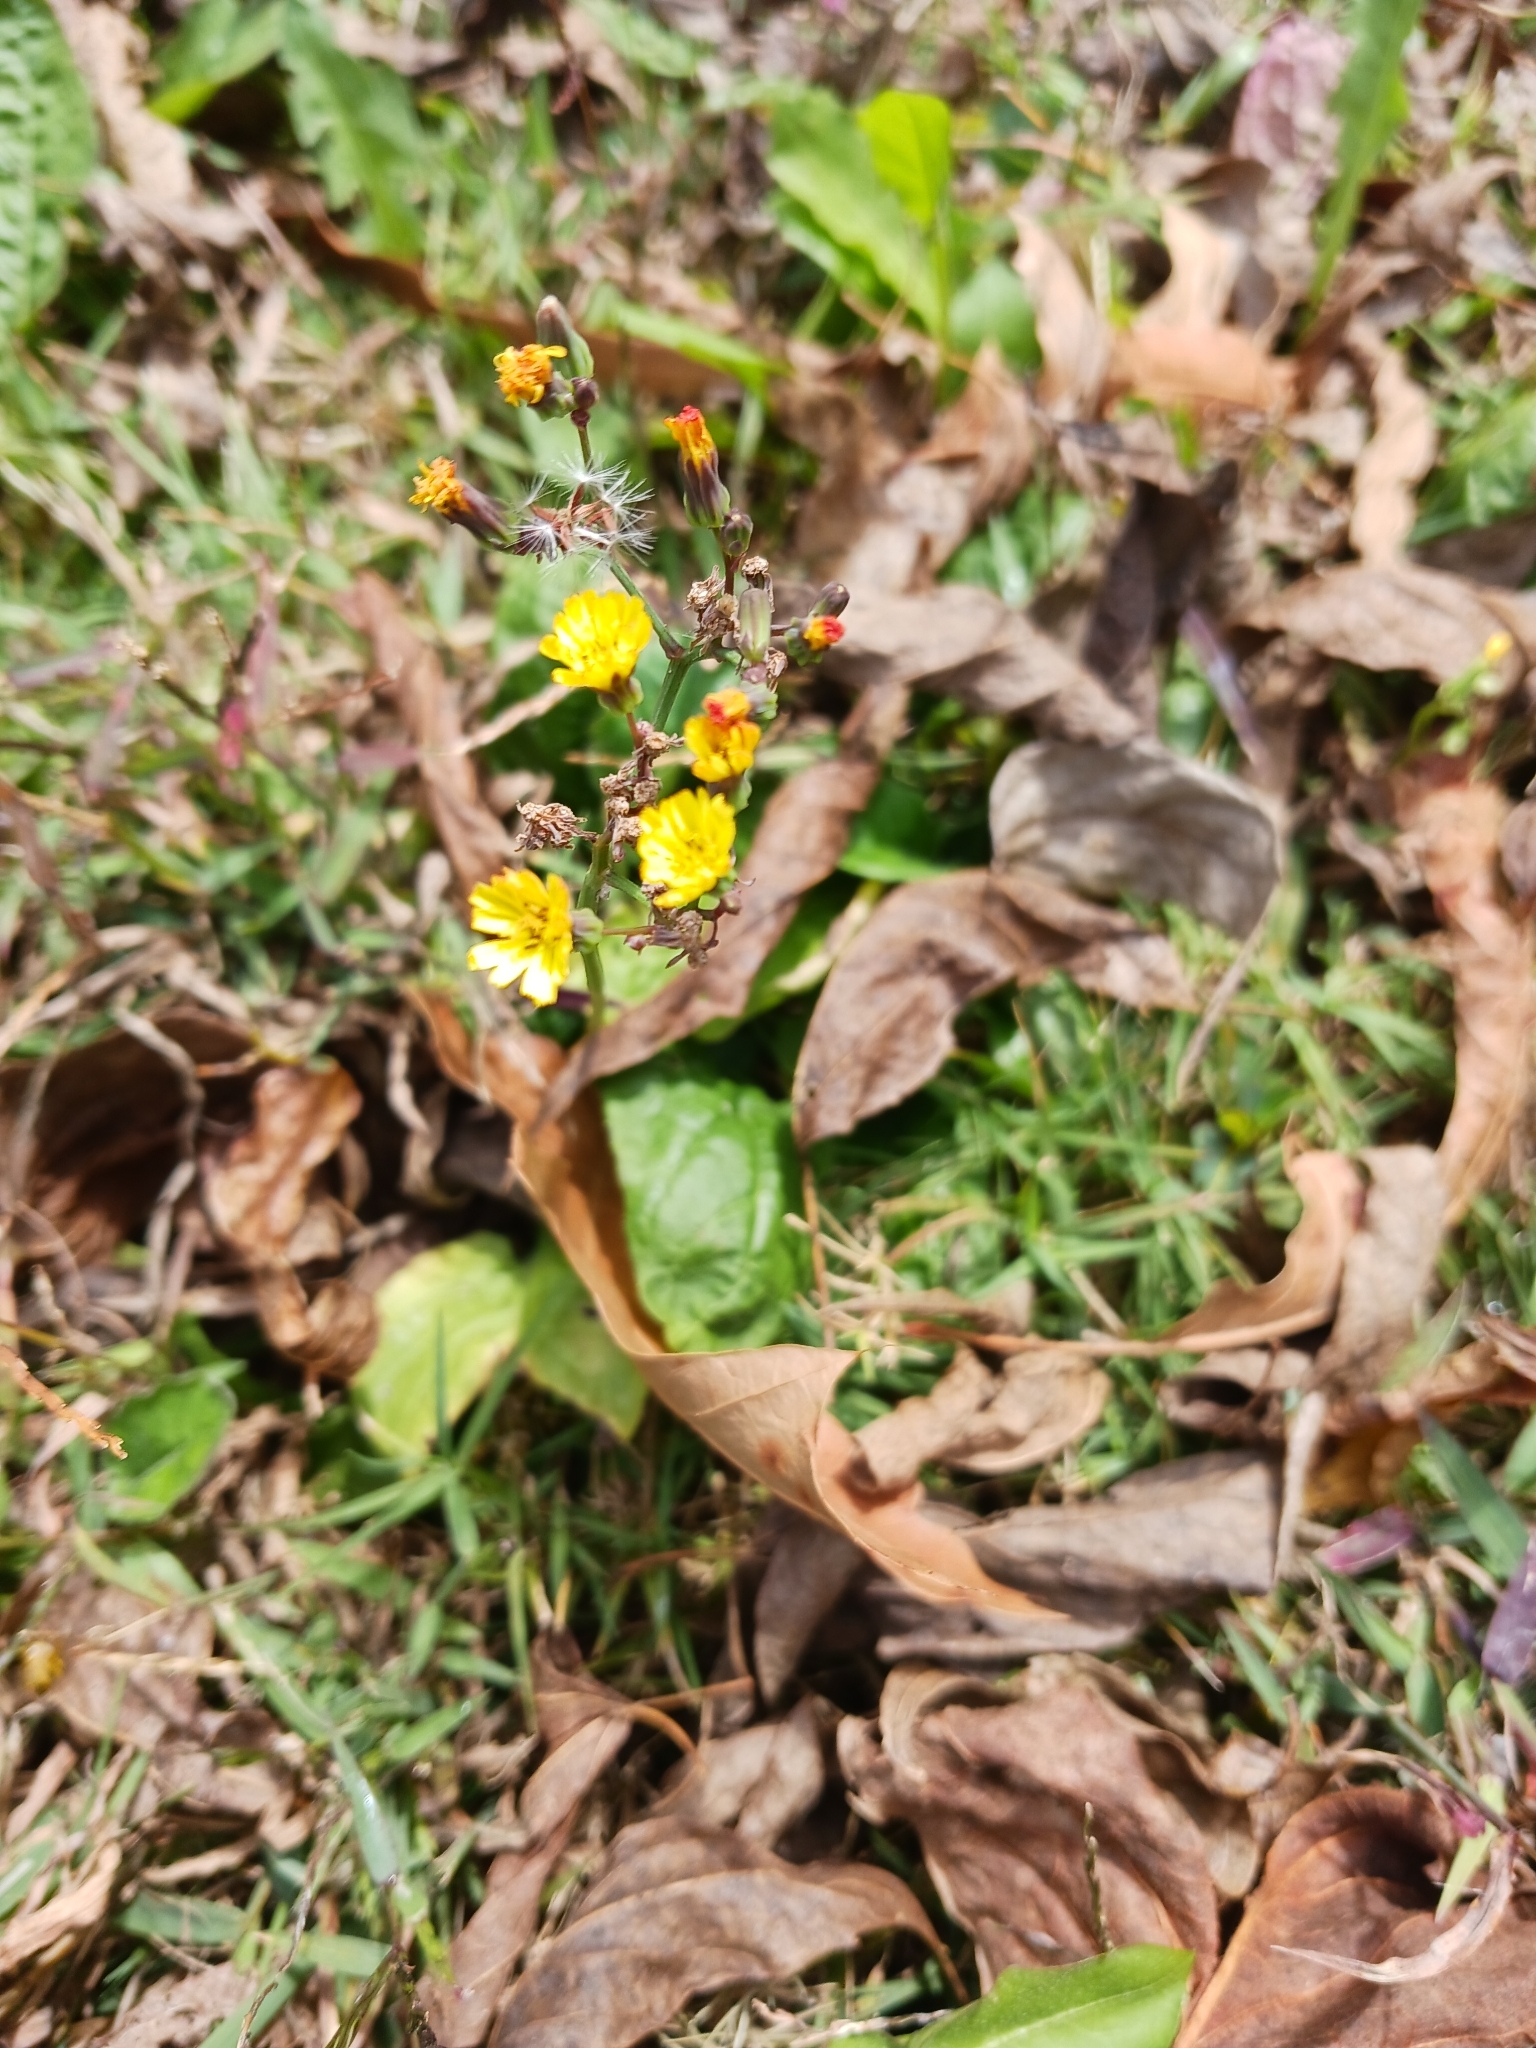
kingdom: Plantae
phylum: Tracheophyta
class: Magnoliopsida
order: Asterales
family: Asteraceae
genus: Youngia
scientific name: Youngia japonica
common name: Oriental false hawksbeard
